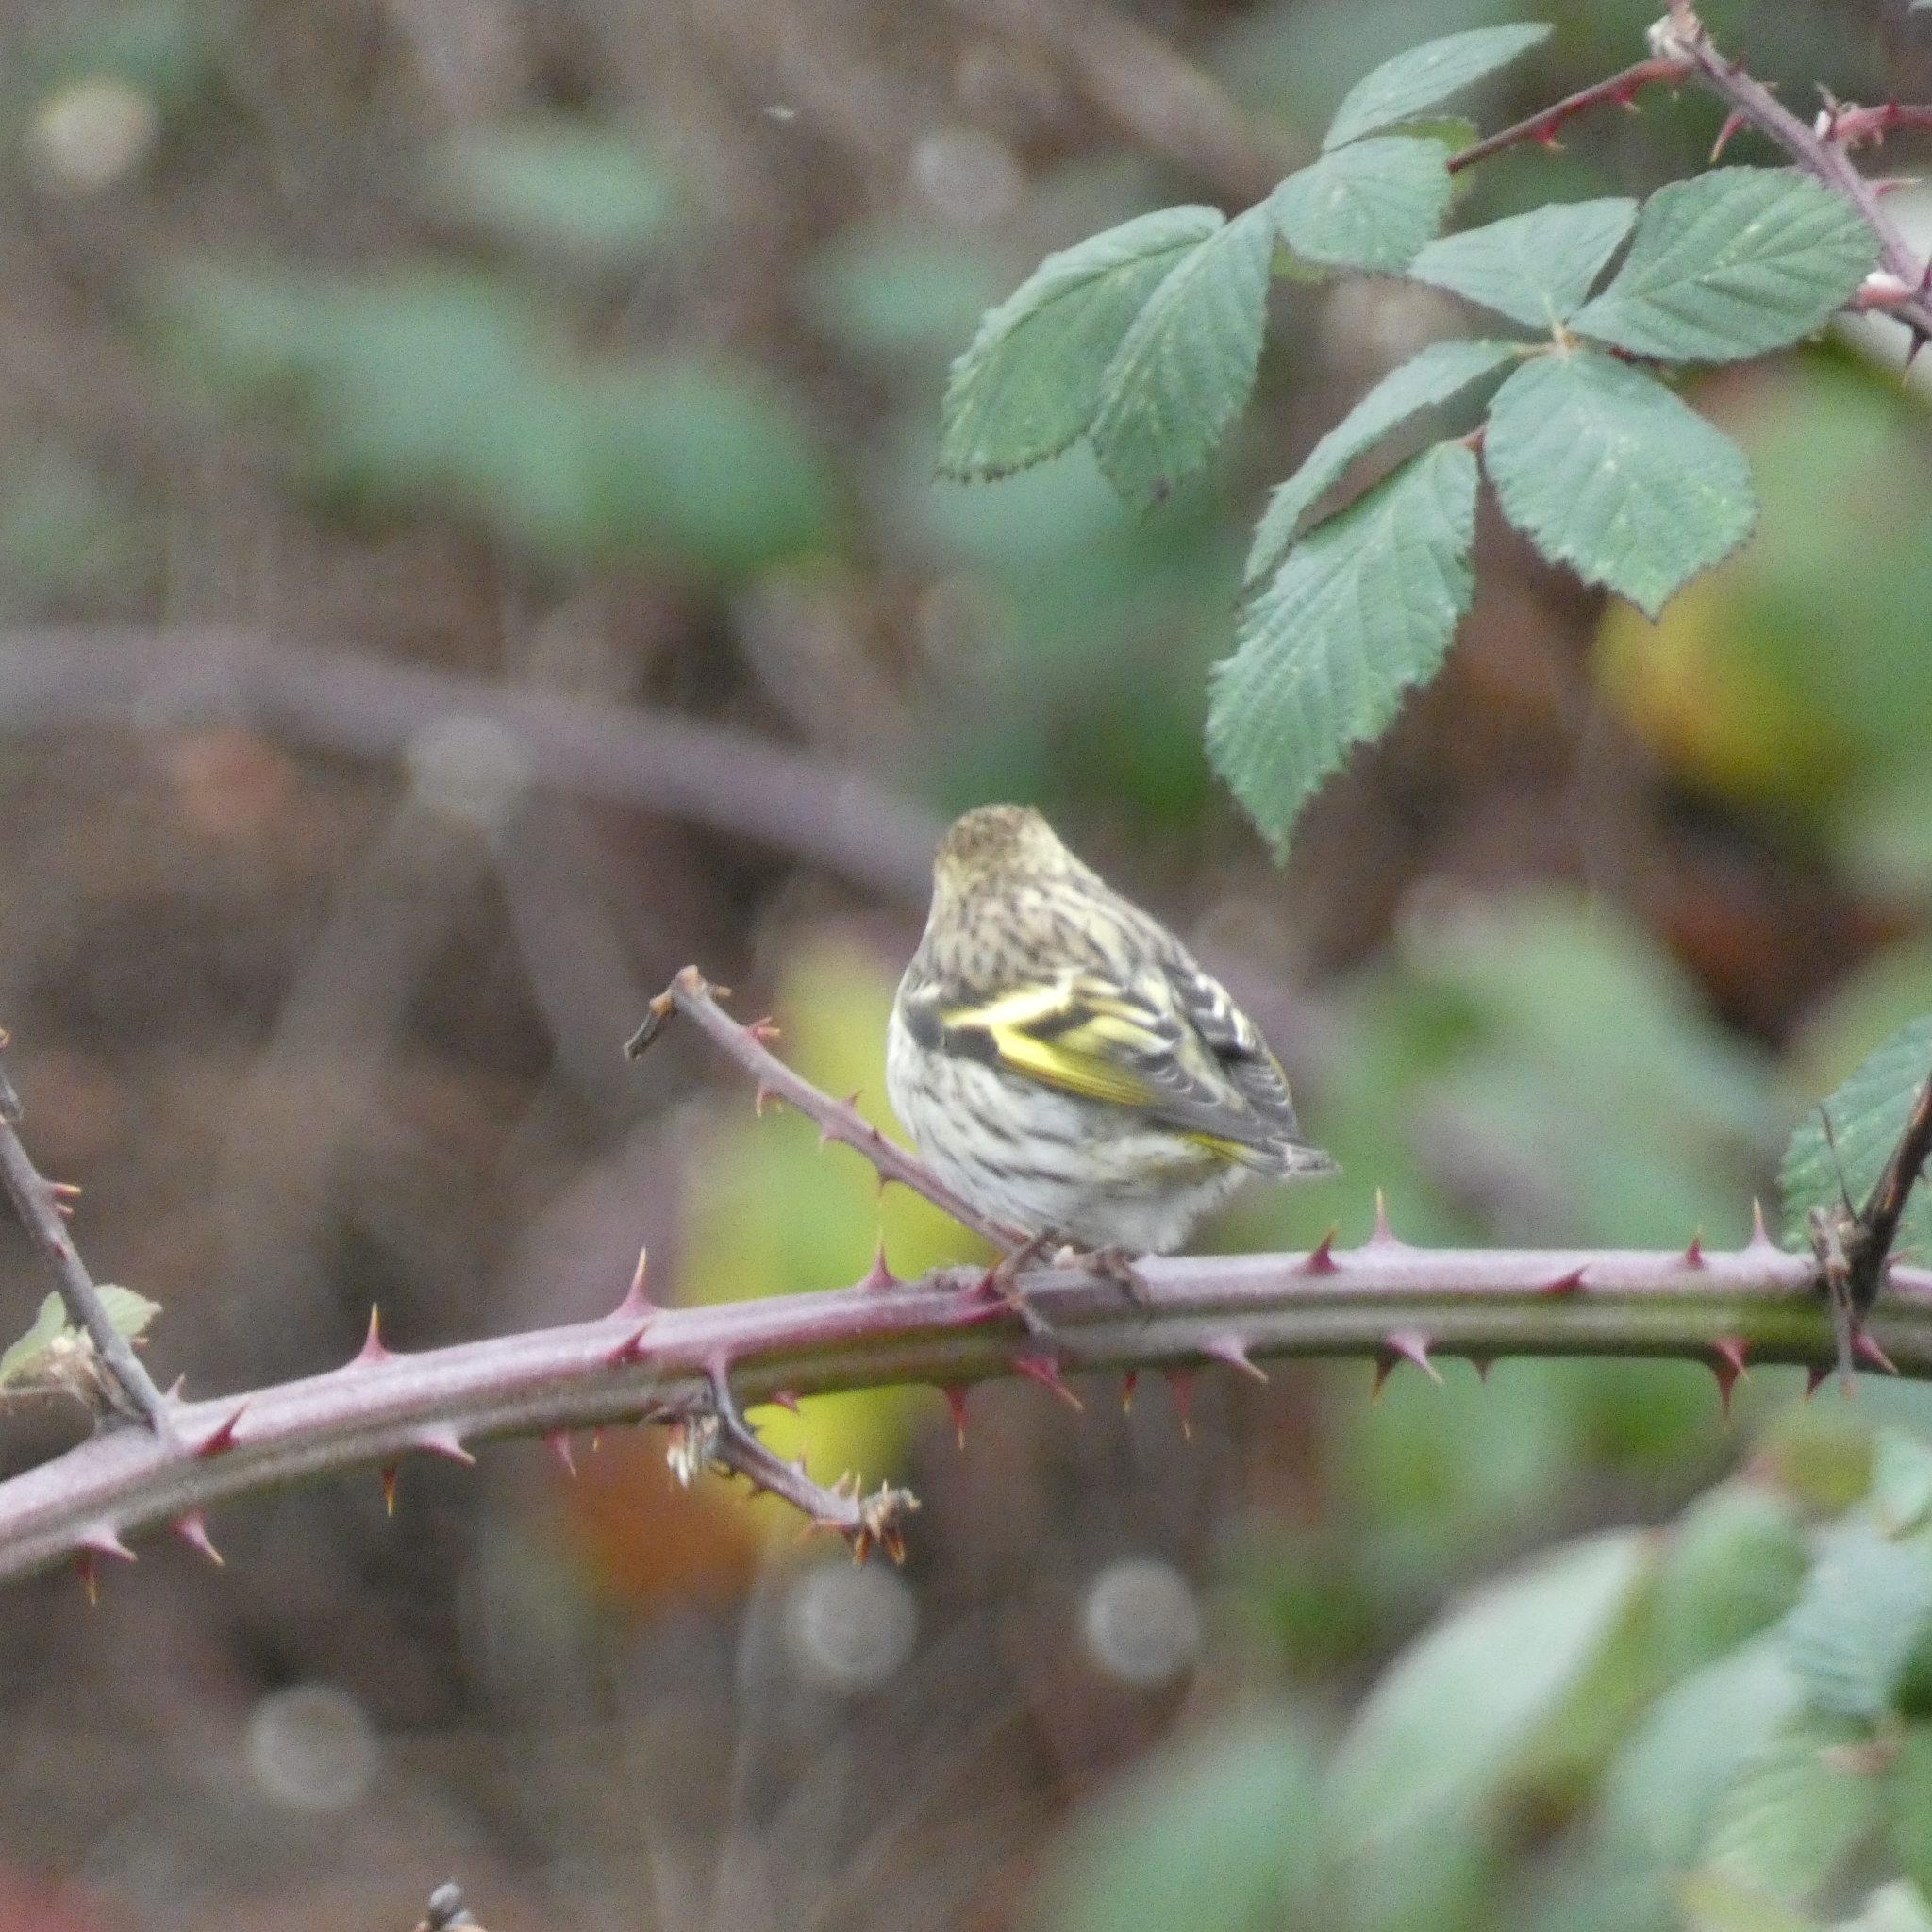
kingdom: Animalia
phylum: Chordata
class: Aves
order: Passeriformes
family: Fringillidae
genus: Spinus
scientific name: Spinus pinus
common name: Pine siskin
